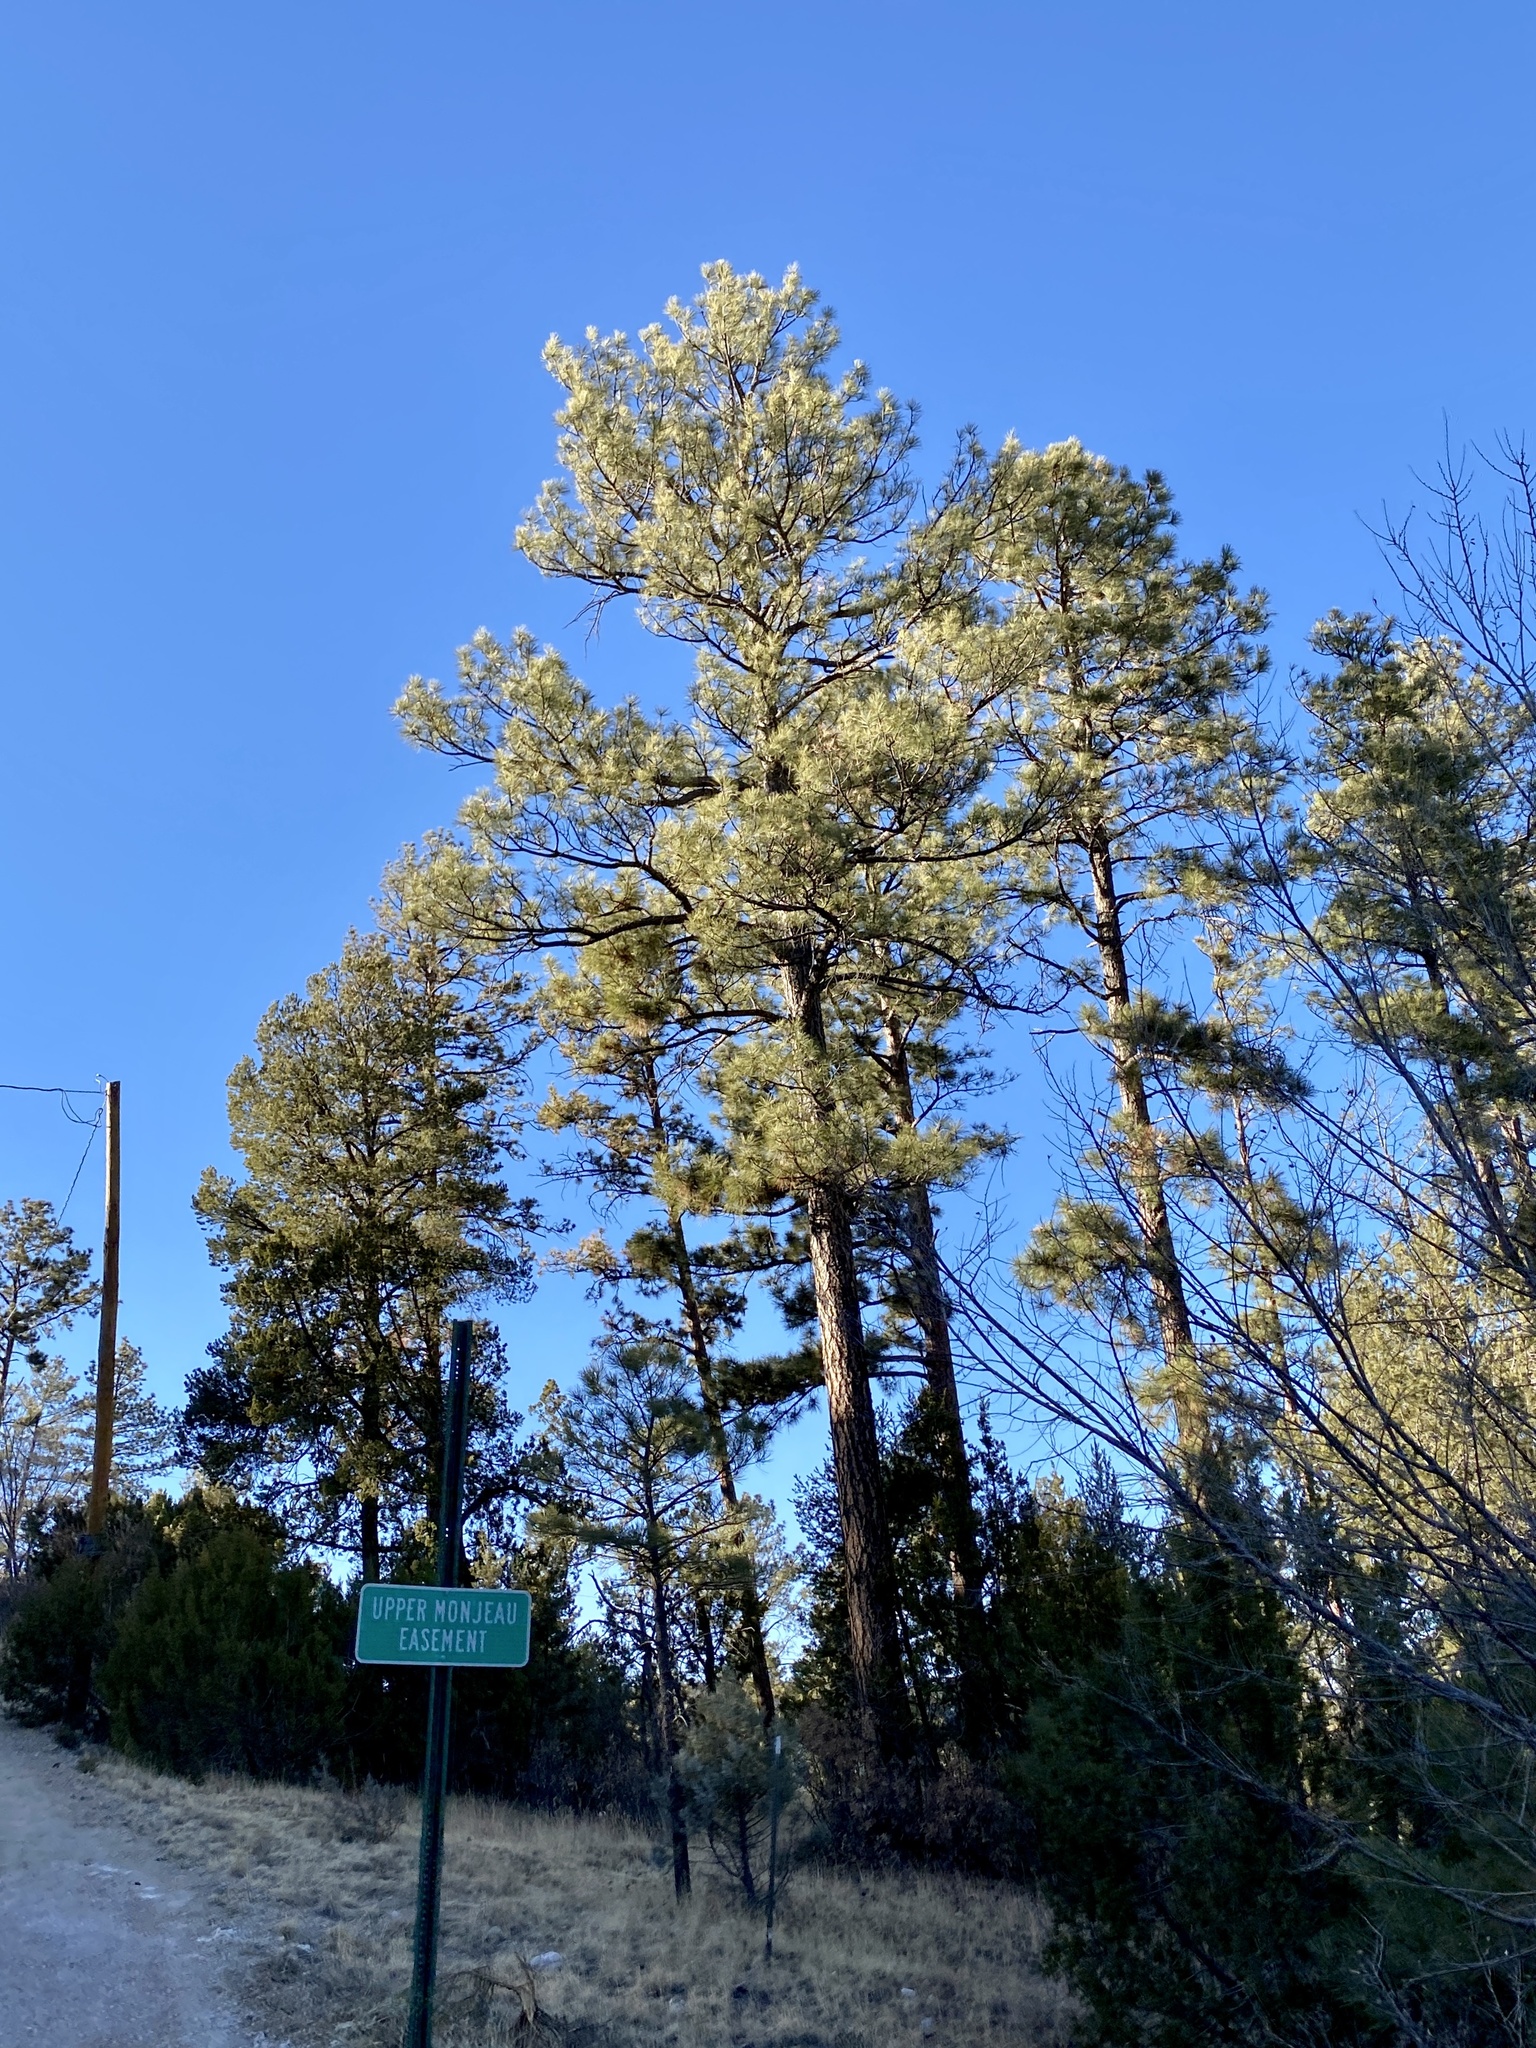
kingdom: Plantae
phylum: Tracheophyta
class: Pinopsida
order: Pinales
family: Pinaceae
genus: Pinus
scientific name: Pinus ponderosa
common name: Western yellow-pine
